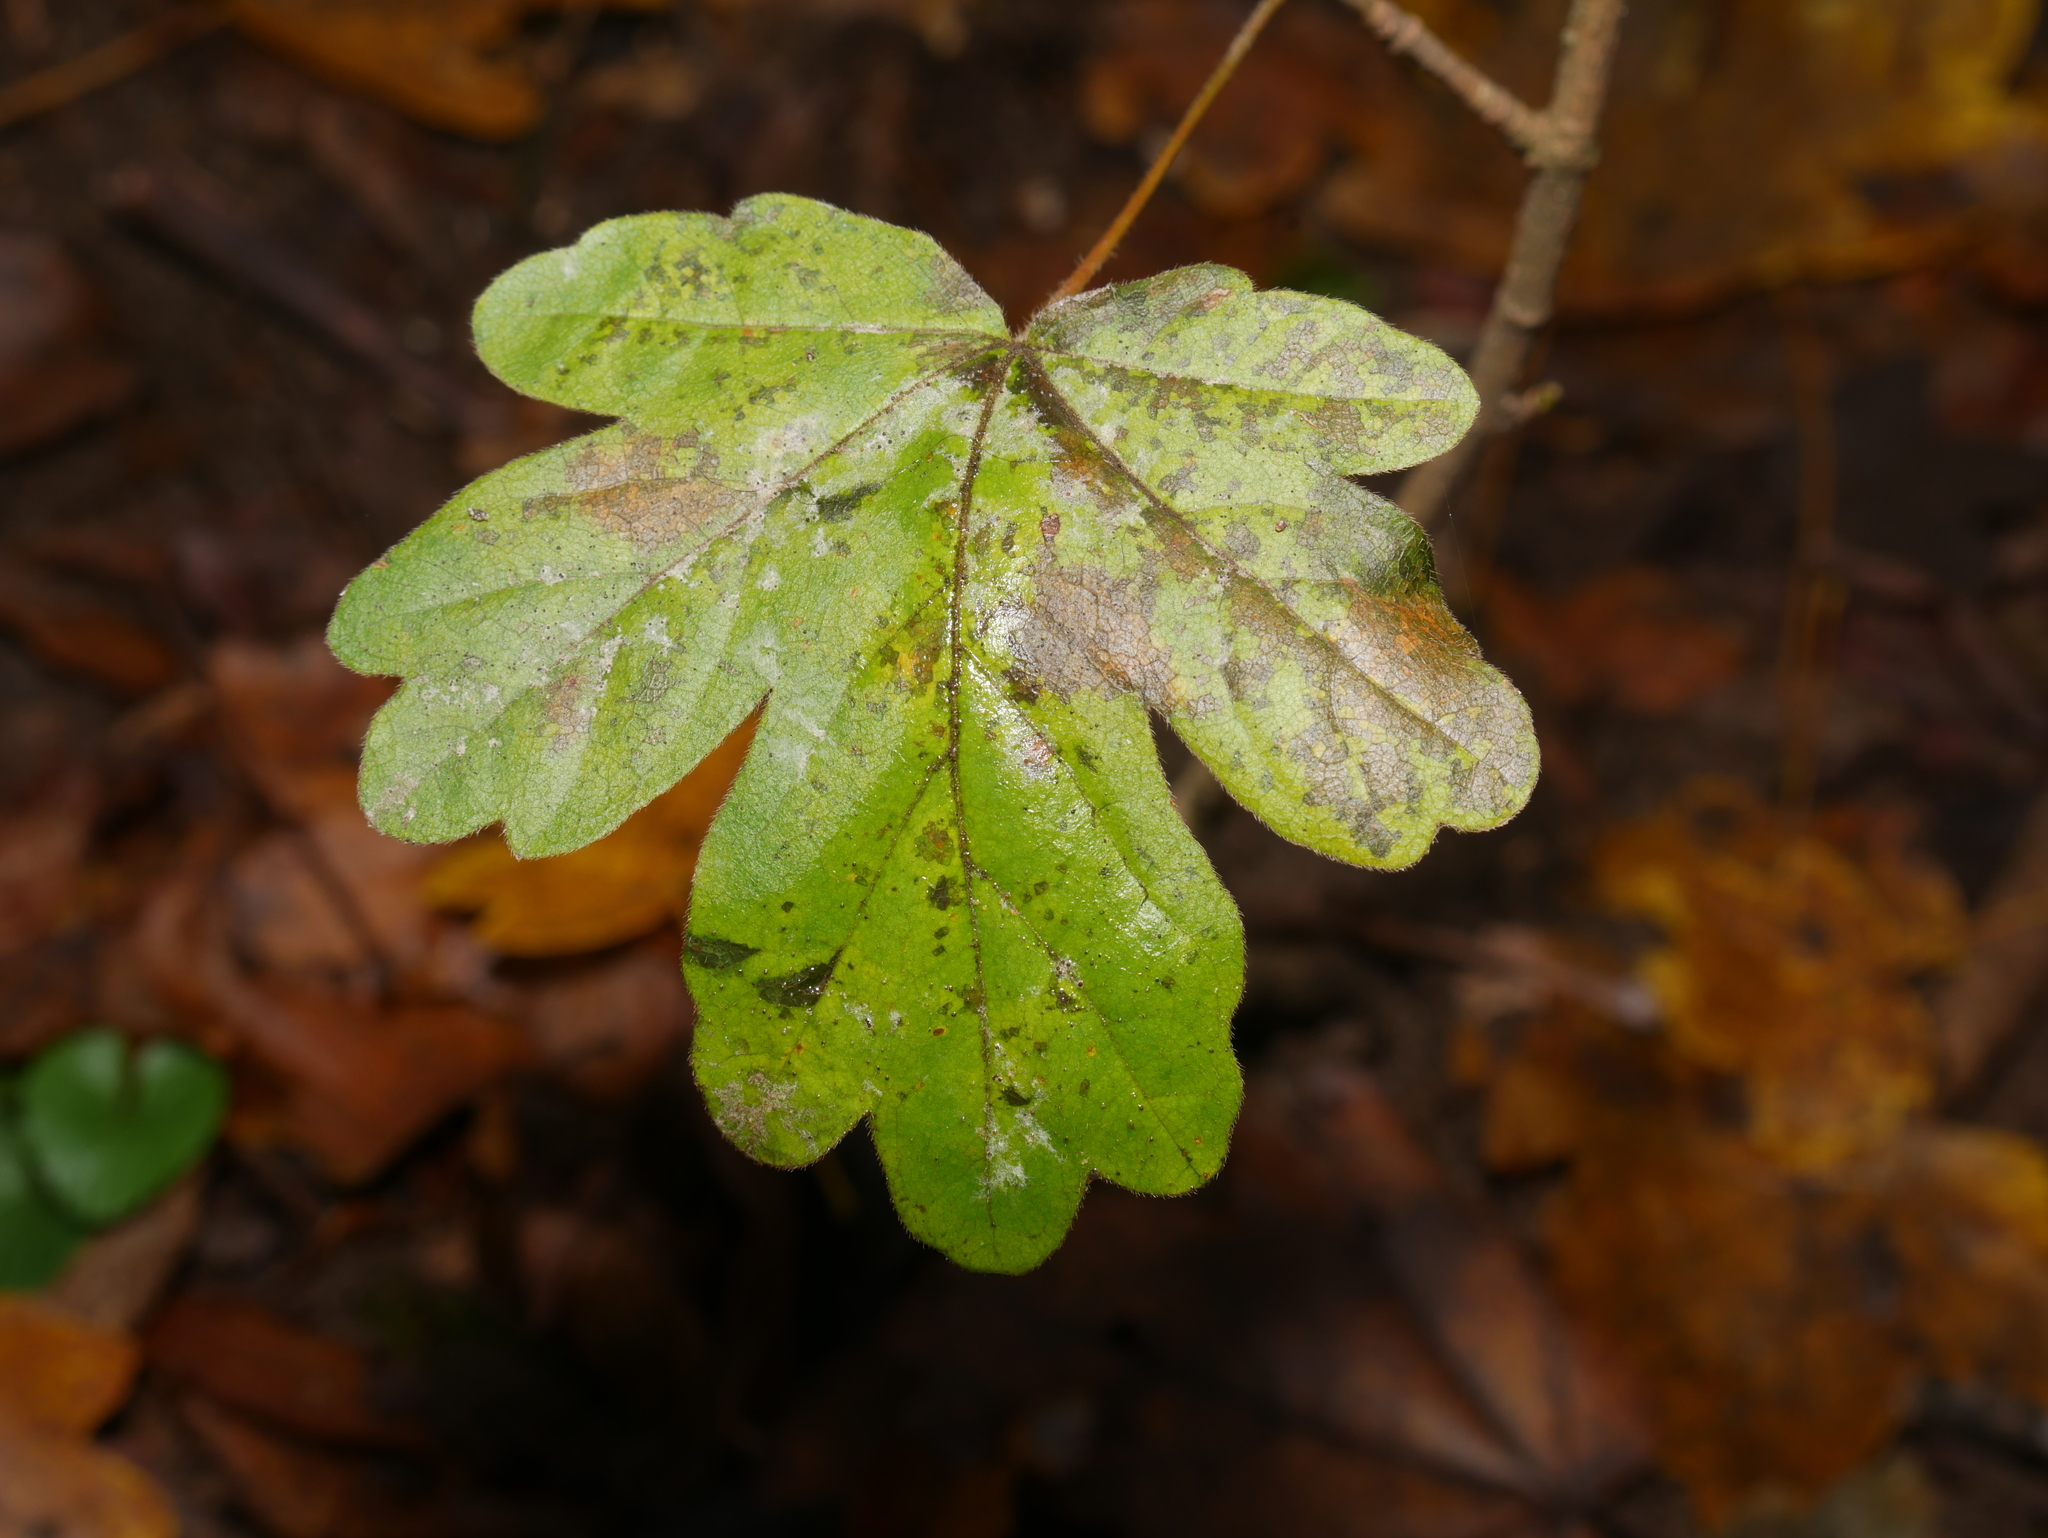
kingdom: Plantae
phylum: Tracheophyta
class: Magnoliopsida
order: Sapindales
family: Sapindaceae
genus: Acer
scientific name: Acer campestre
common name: Field maple
